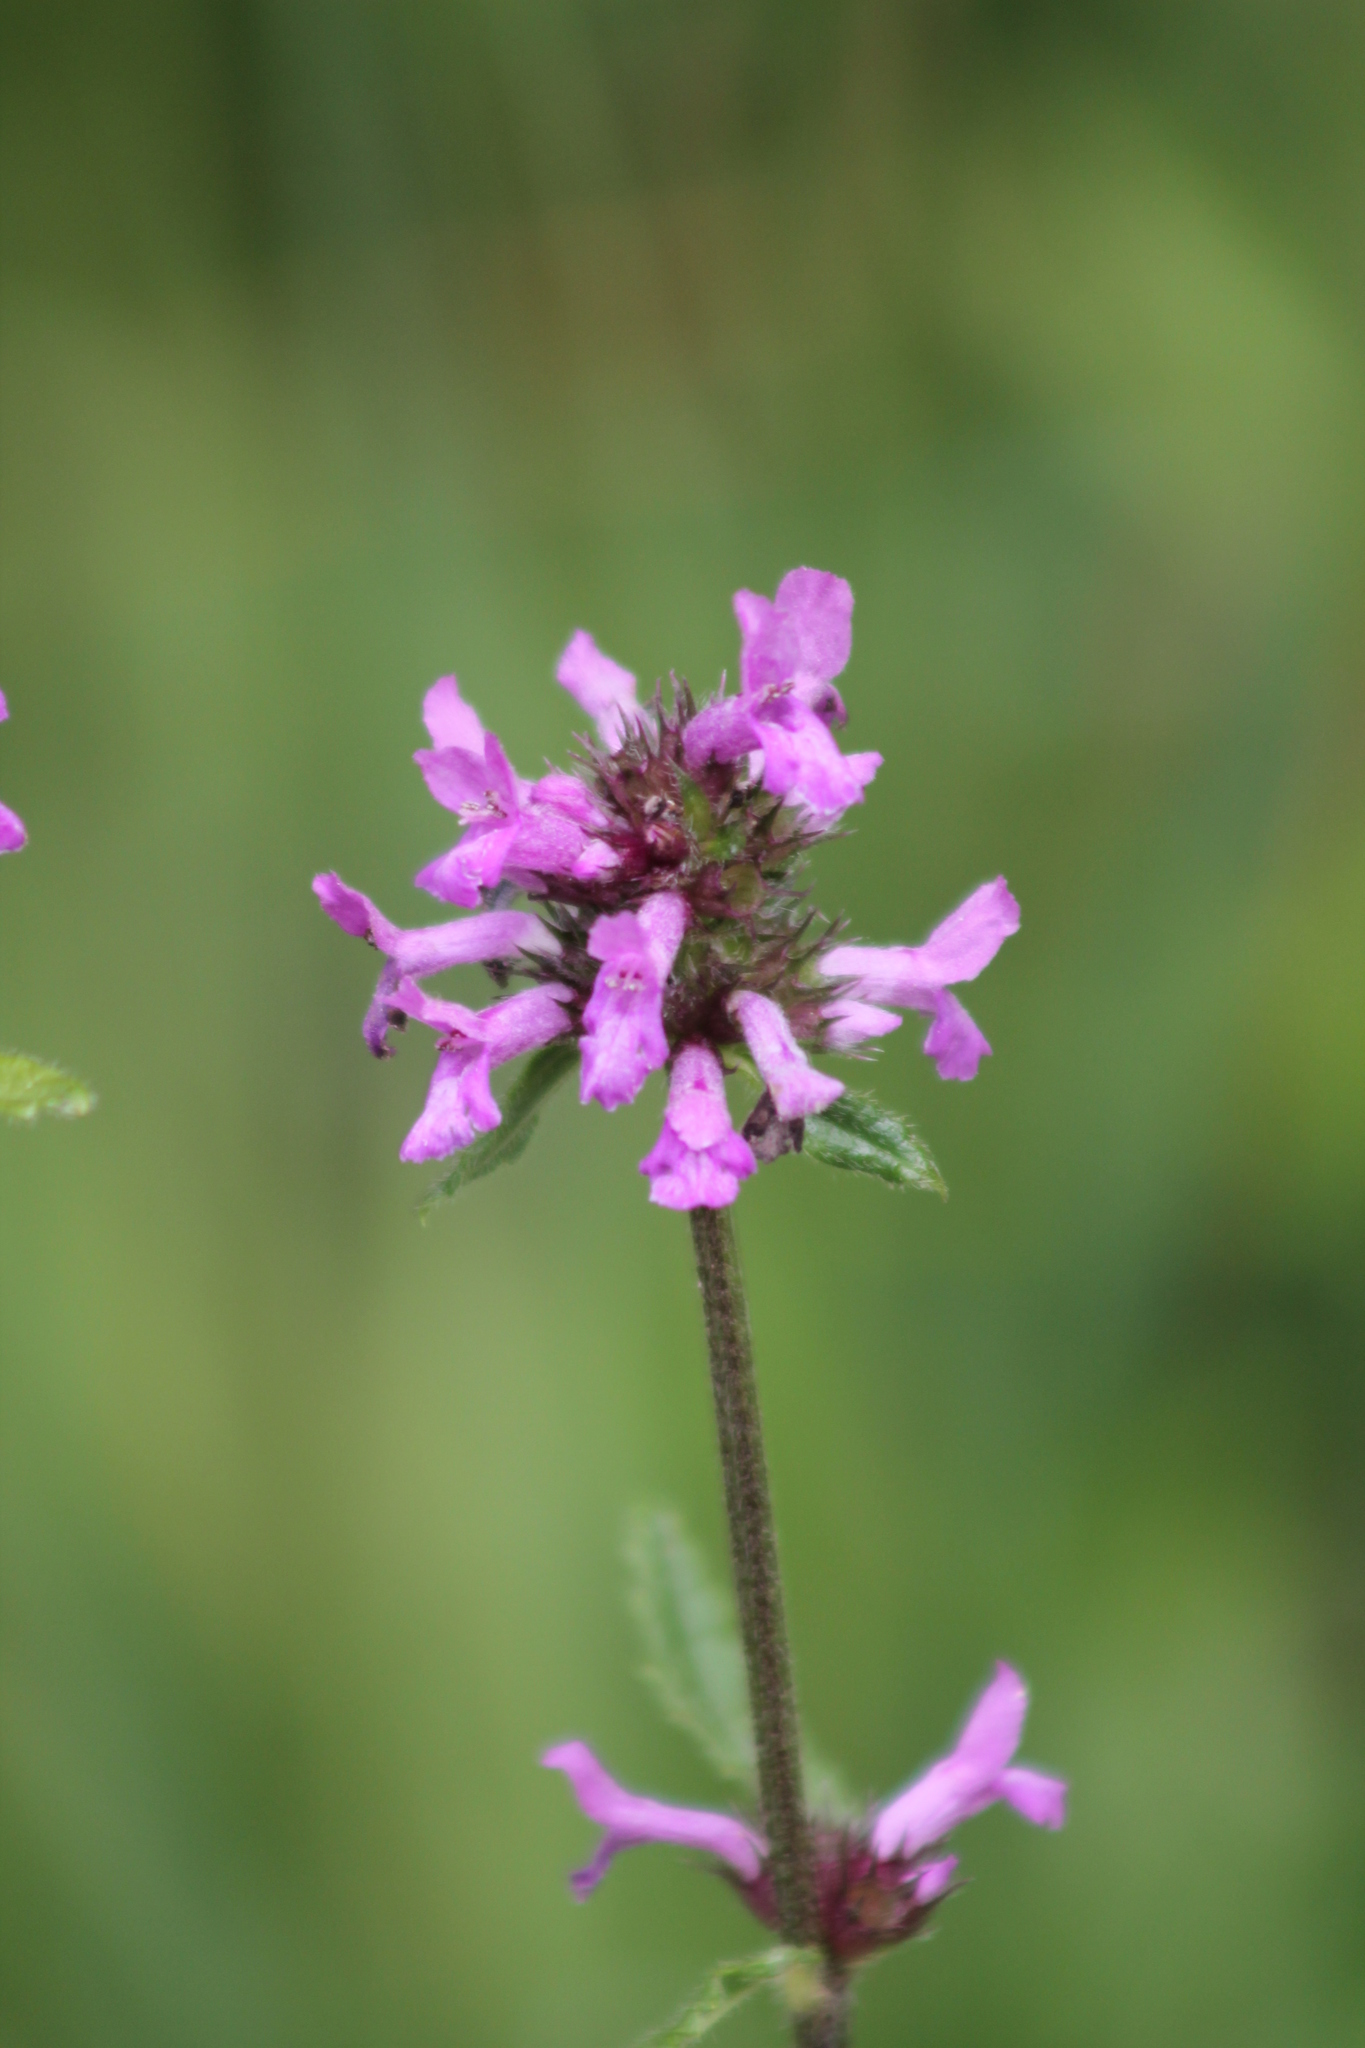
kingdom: Plantae
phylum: Tracheophyta
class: Magnoliopsida
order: Lamiales
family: Lamiaceae
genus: Betonica
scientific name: Betonica officinalis
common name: Bishop's-wort
